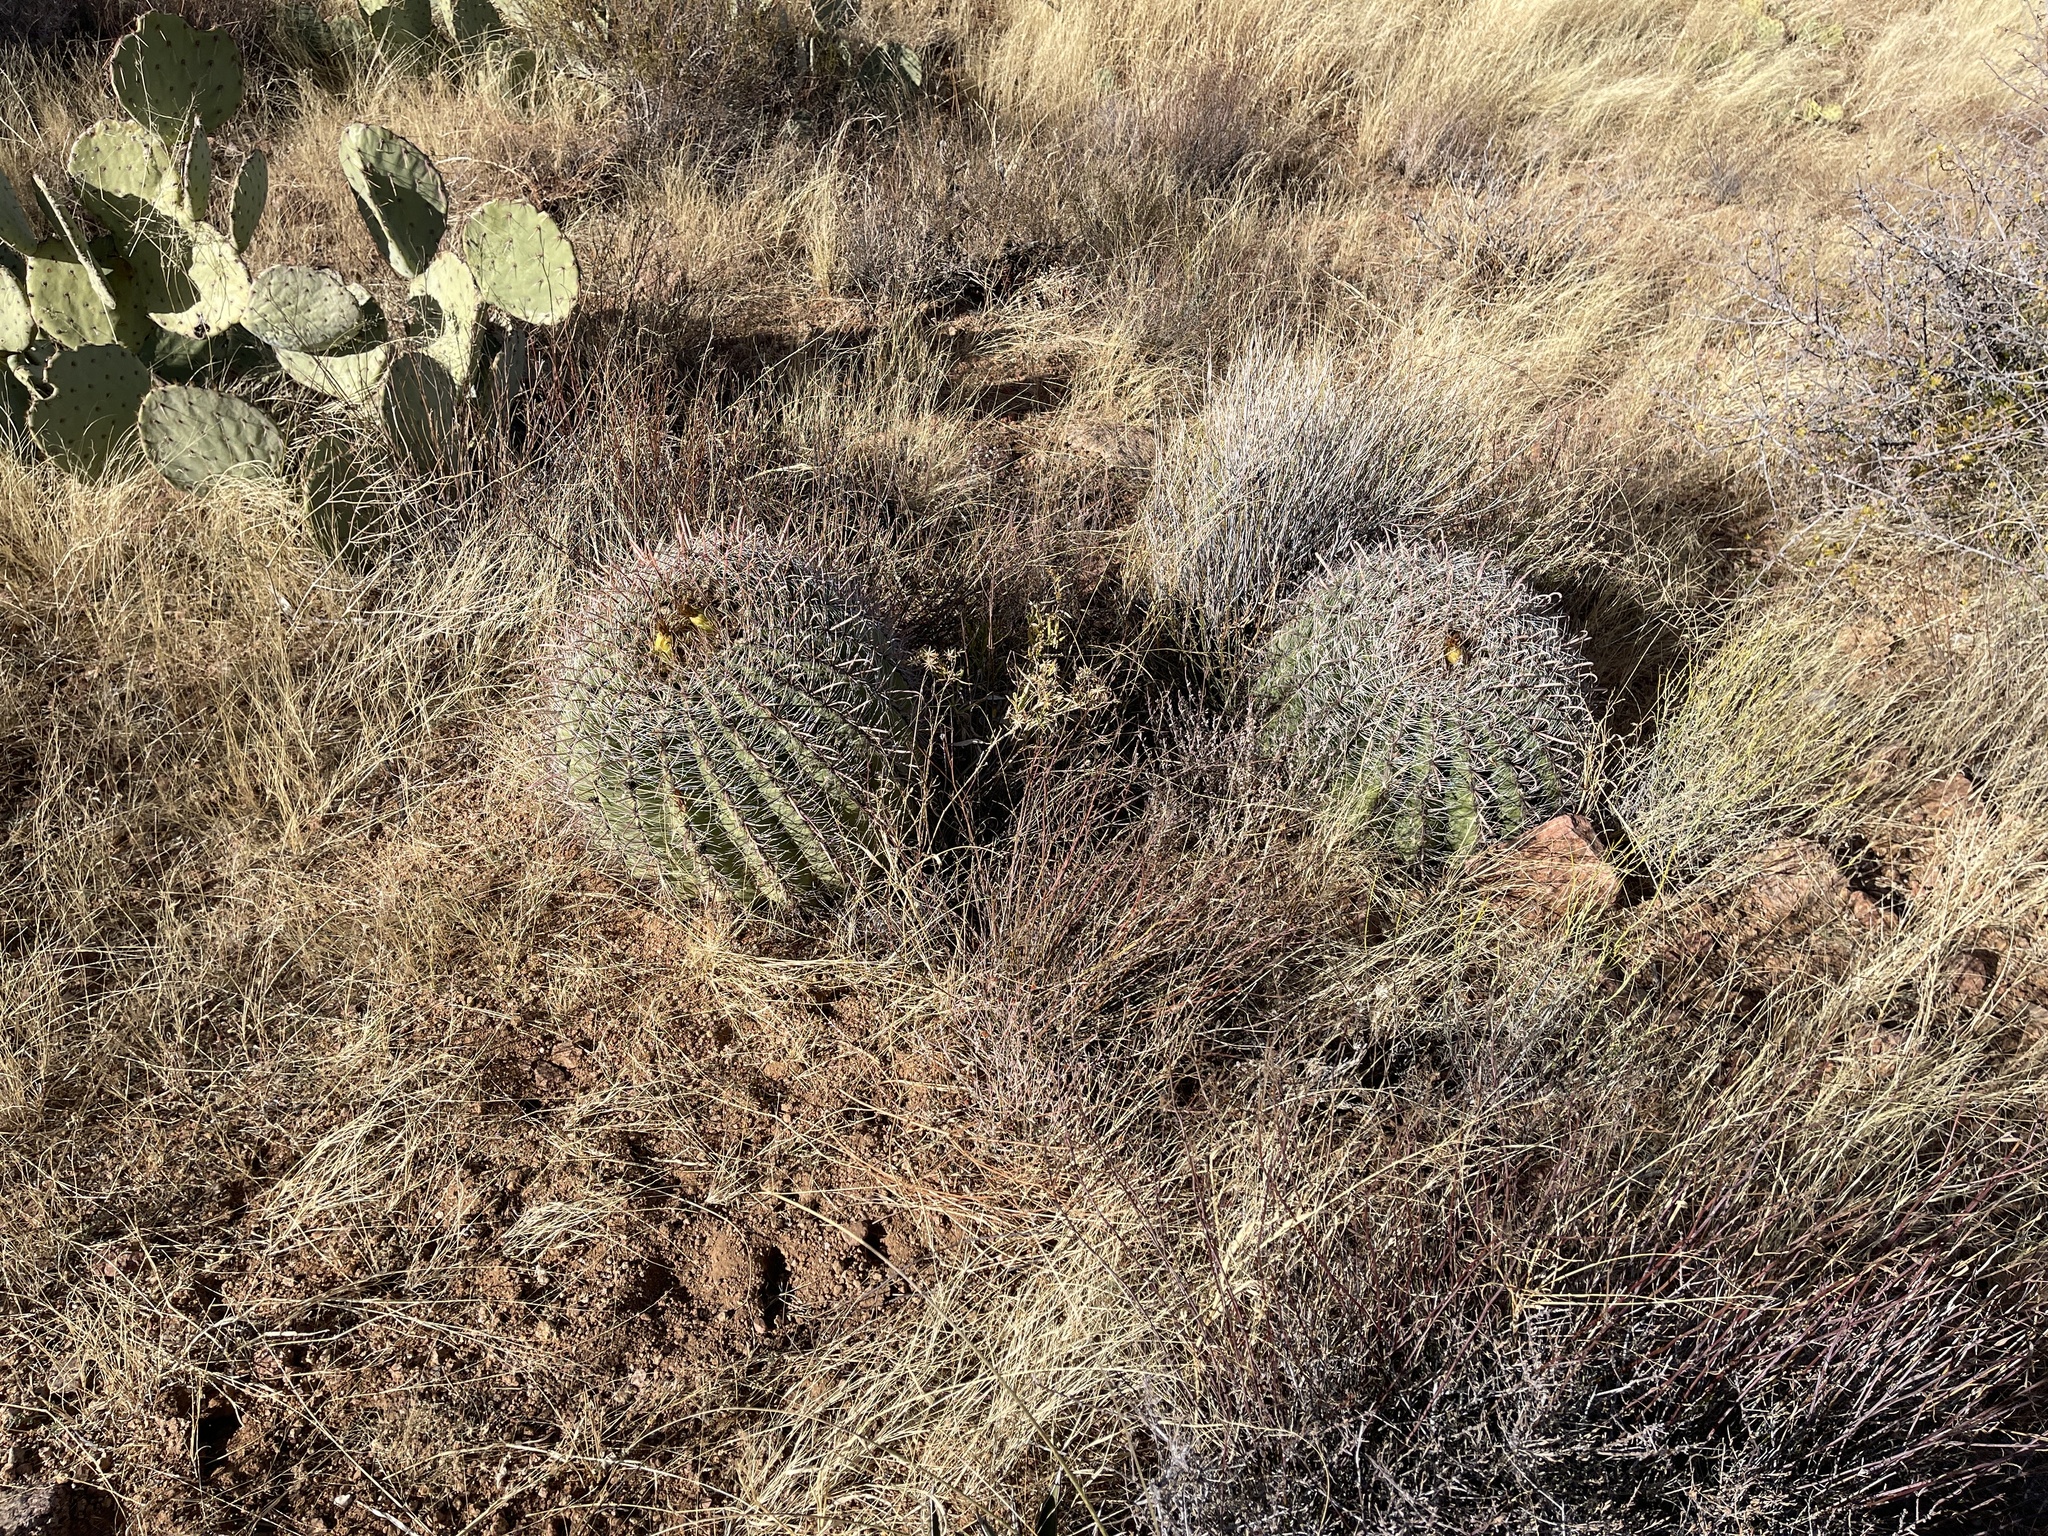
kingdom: Plantae
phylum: Tracheophyta
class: Magnoliopsida
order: Caryophyllales
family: Cactaceae
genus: Ferocactus
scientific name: Ferocactus wislizeni
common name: Candy barrel cactus
